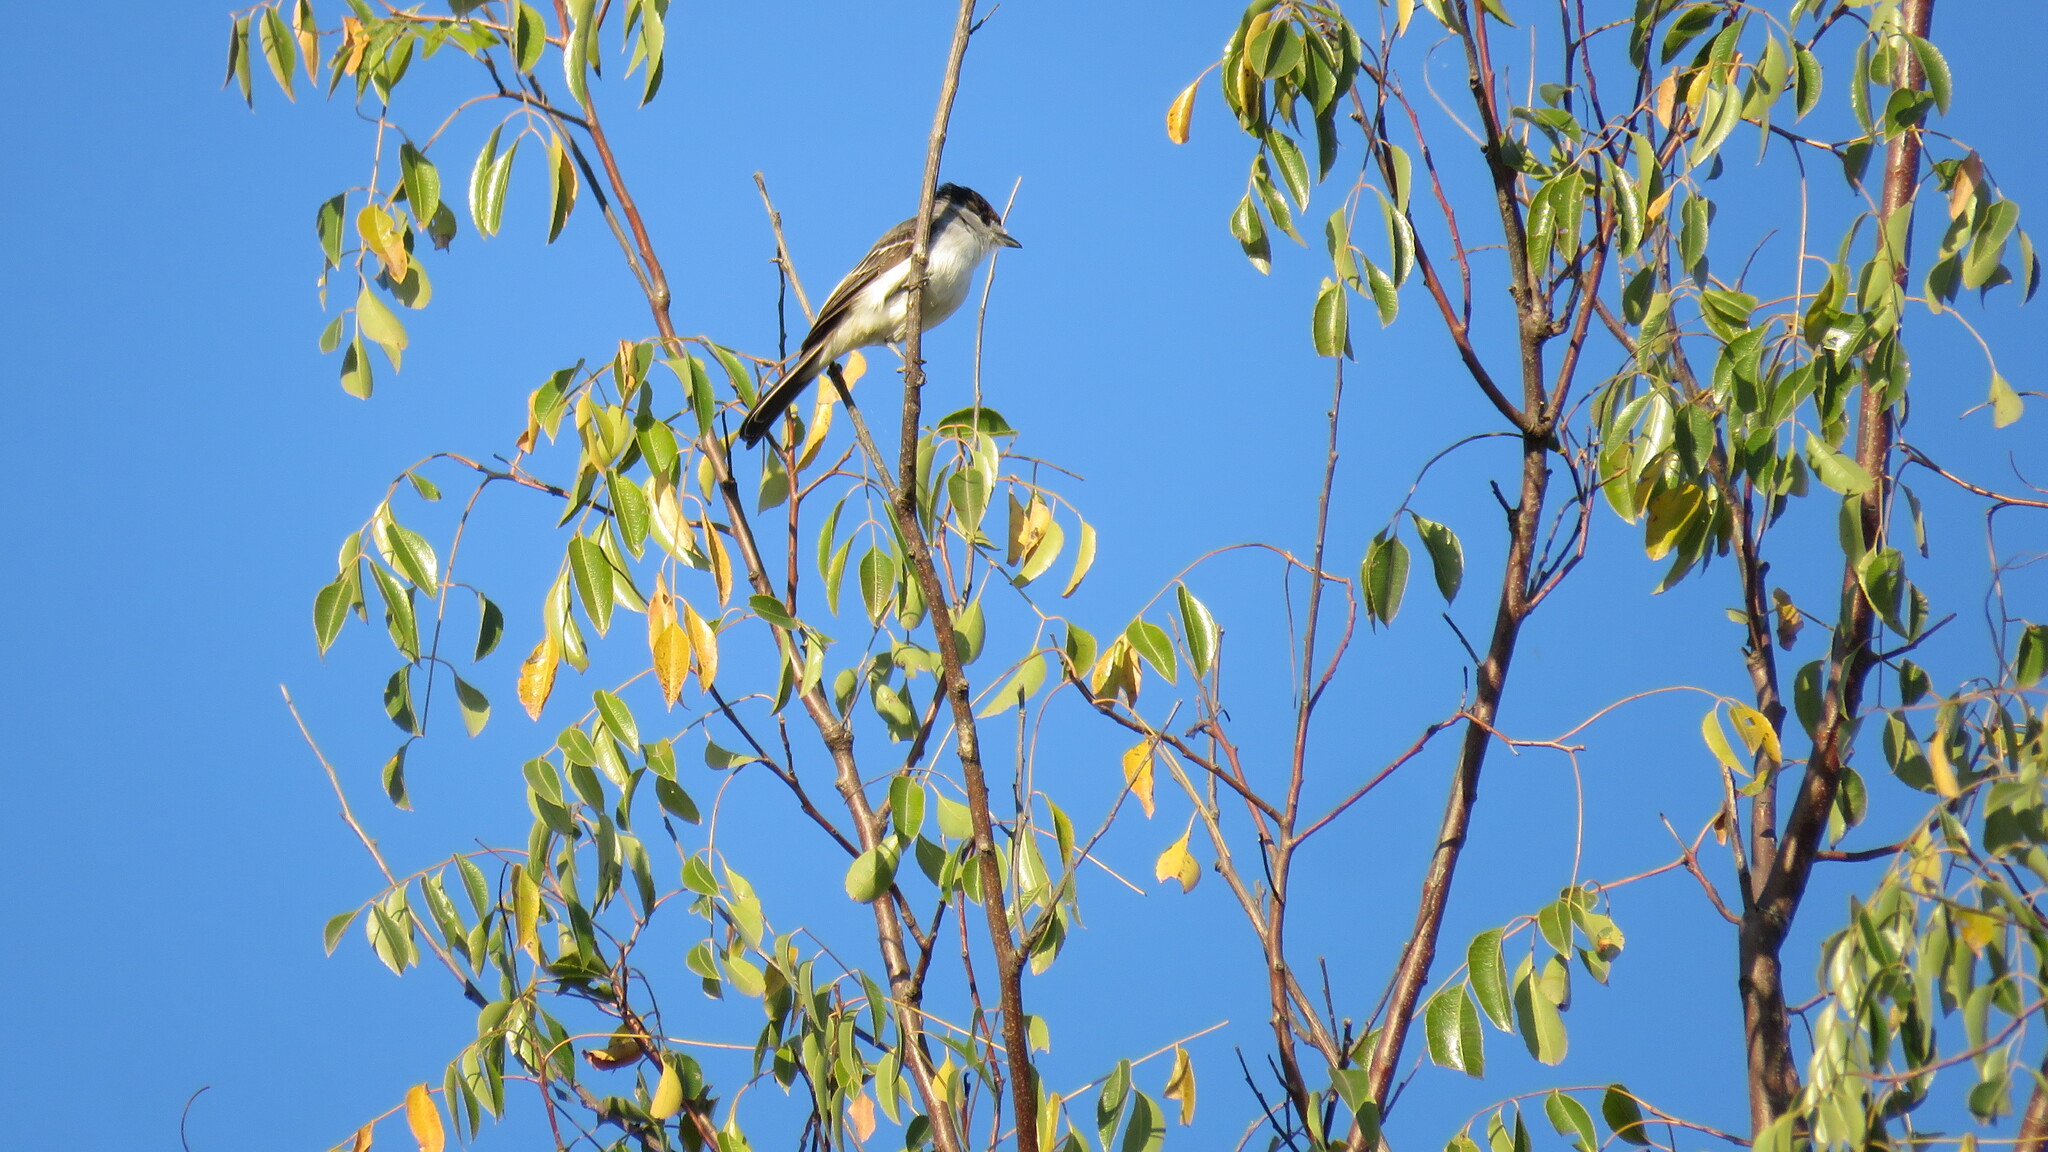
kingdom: Animalia
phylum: Chordata
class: Aves
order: Passeriformes
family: Cotingidae
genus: Xenopsaris
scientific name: Xenopsaris albinucha
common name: White-naped xenopsaris
